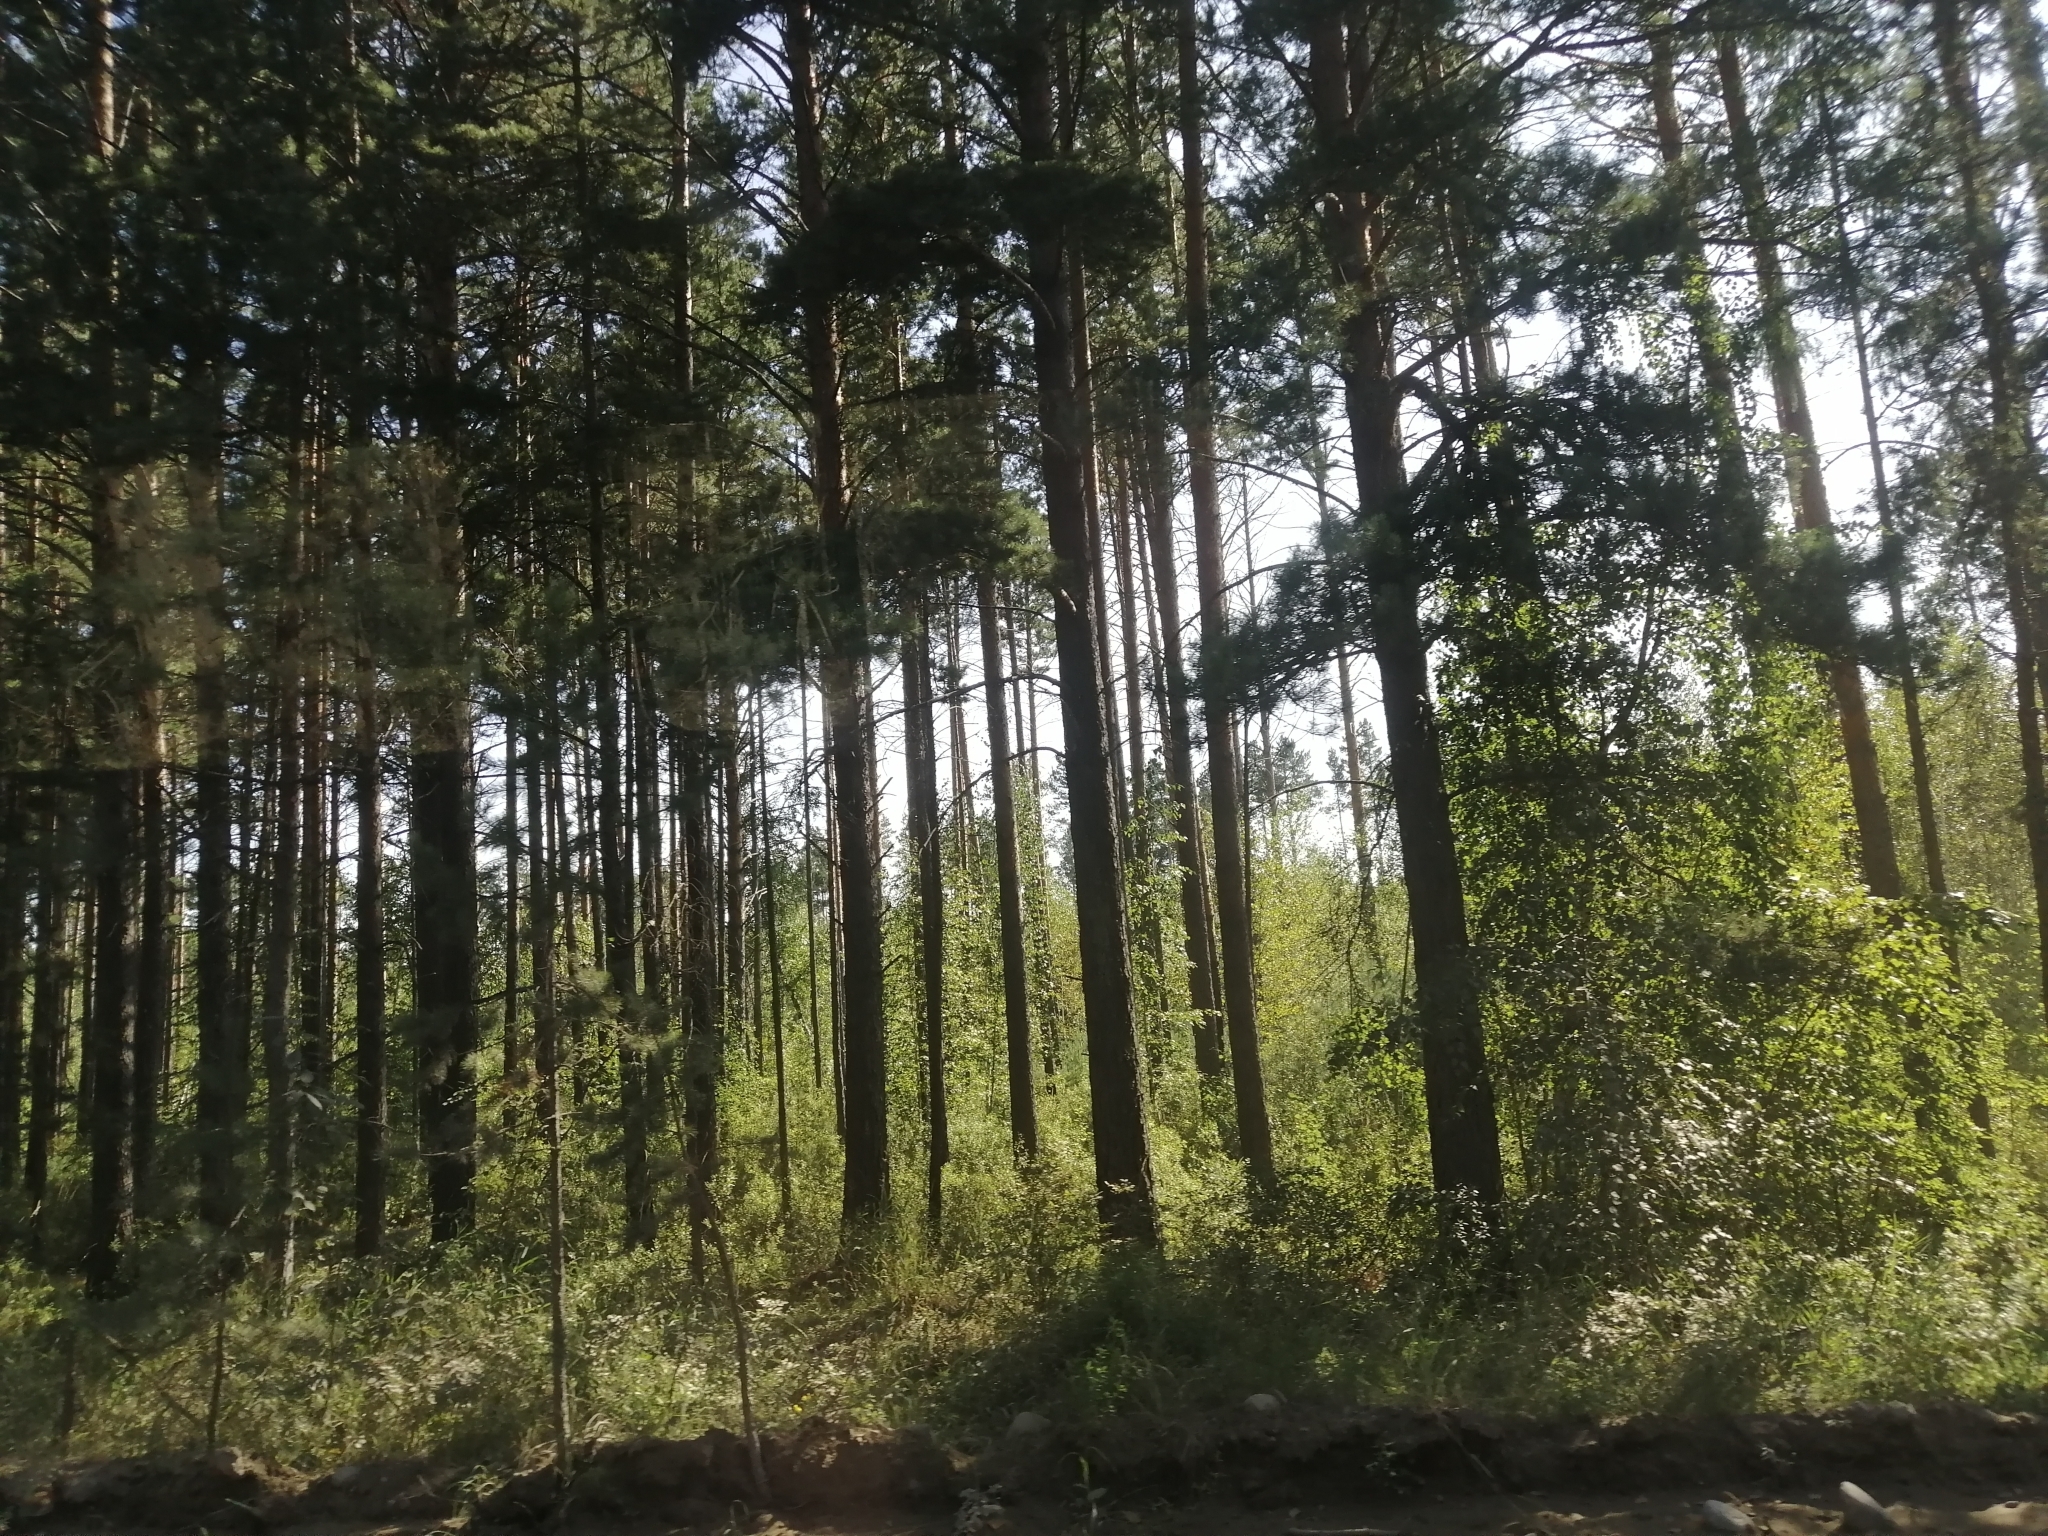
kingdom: Plantae
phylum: Tracheophyta
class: Pinopsida
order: Pinales
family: Pinaceae
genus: Pinus
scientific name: Pinus sylvestris
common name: Scots pine
